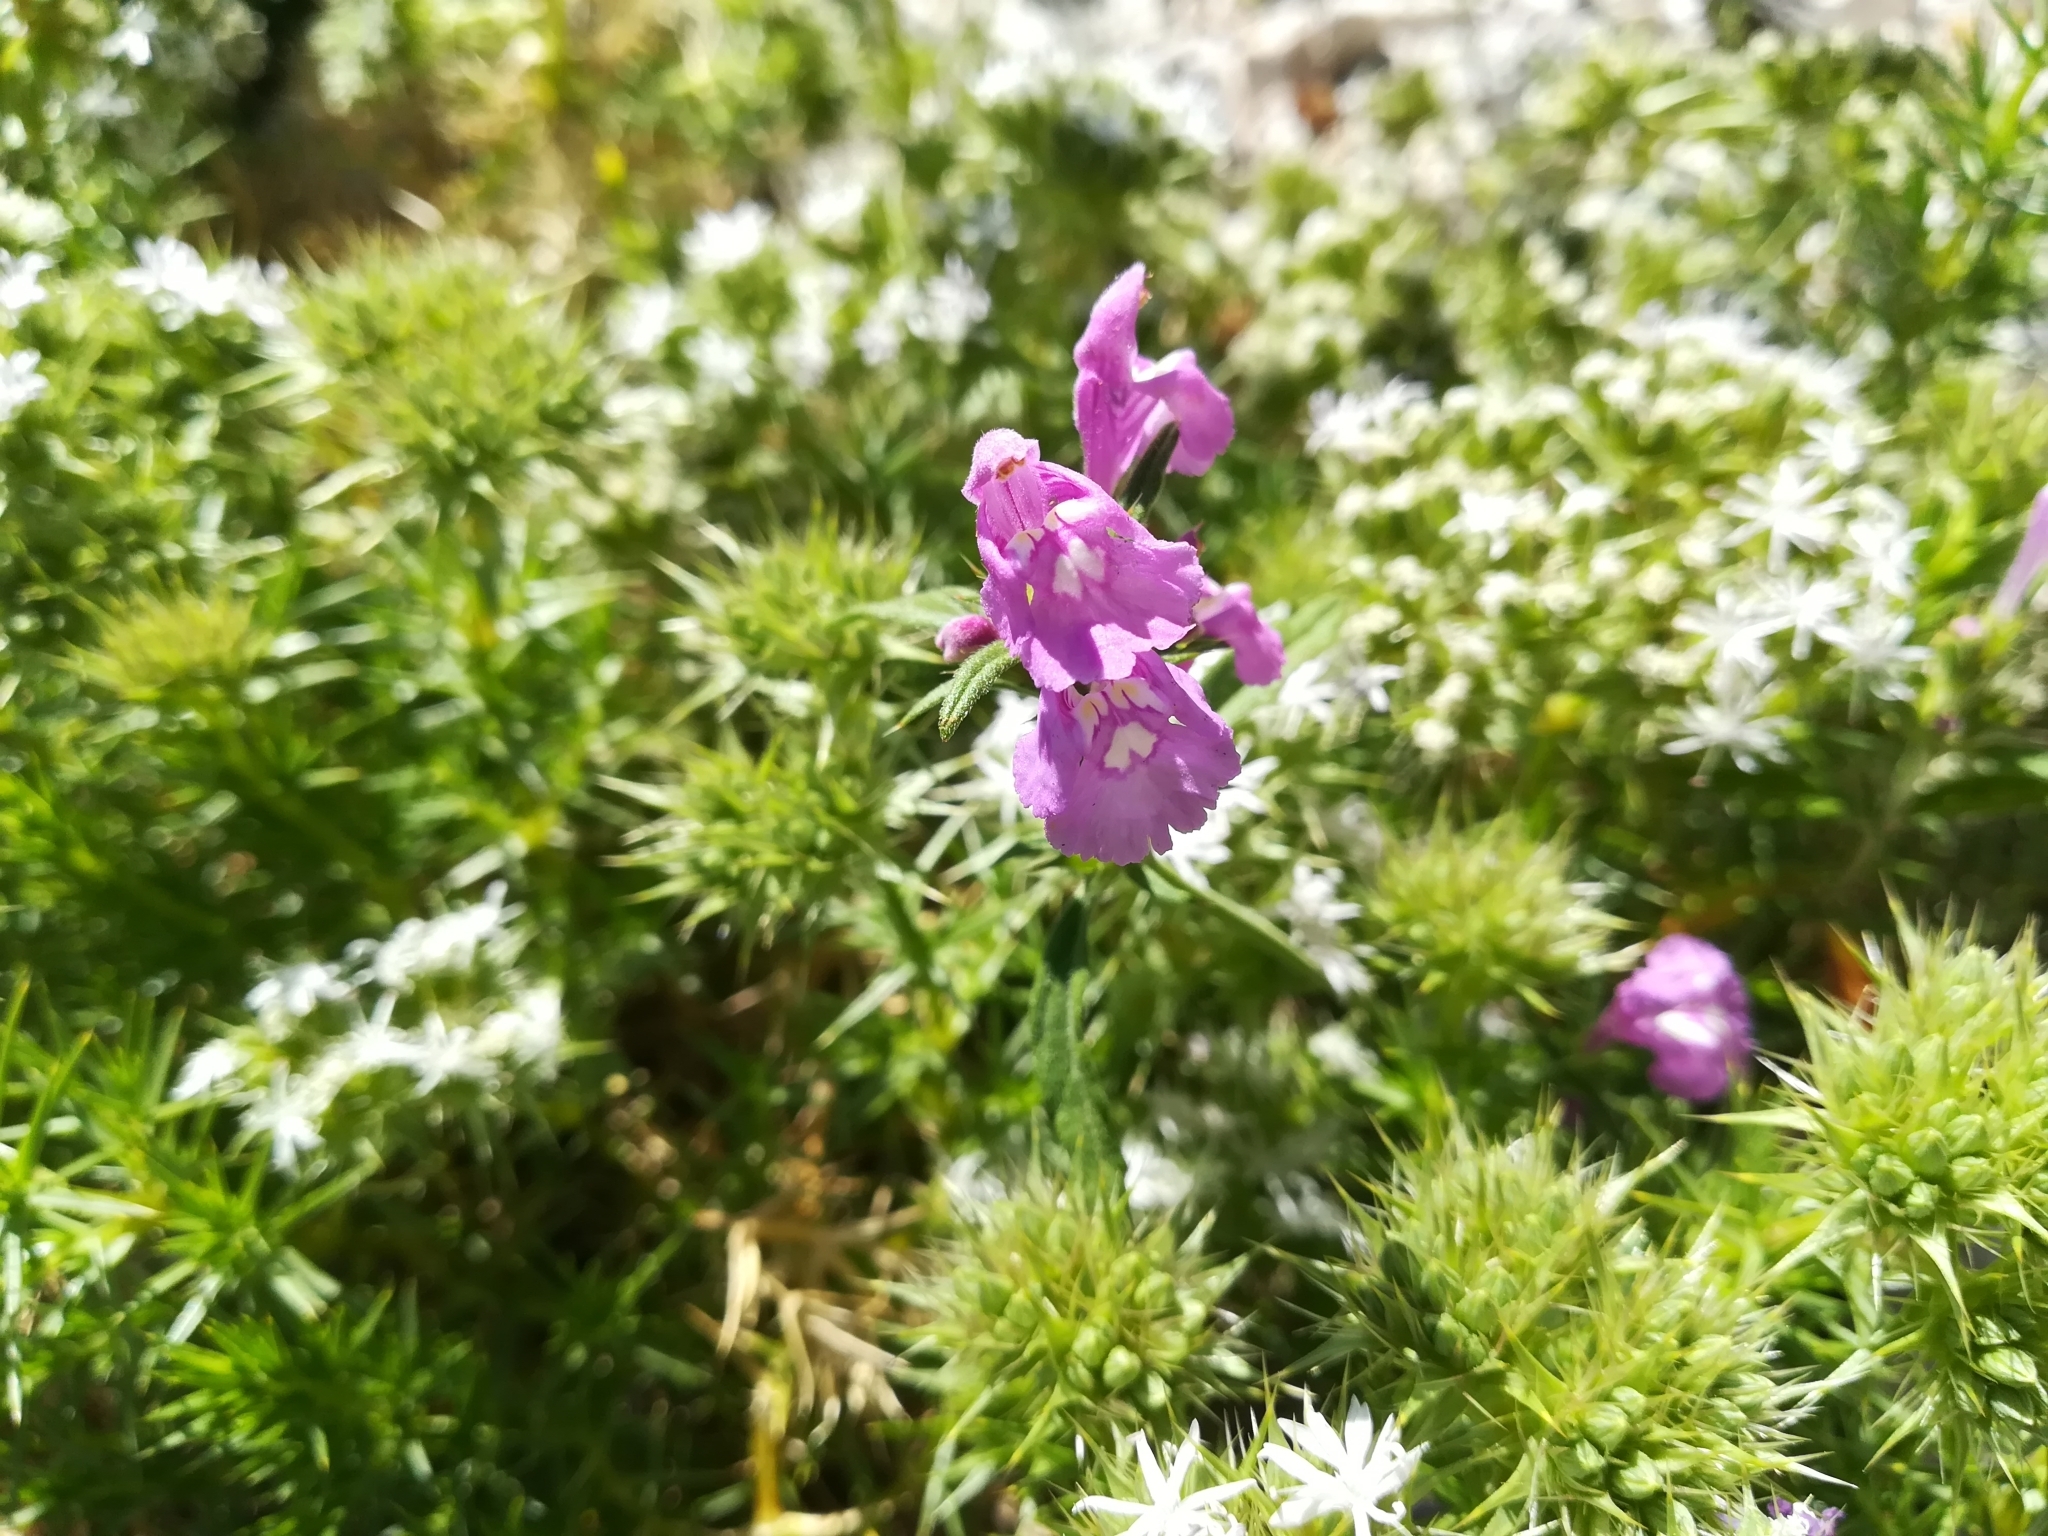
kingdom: Plantae
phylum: Tracheophyta
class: Magnoliopsida
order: Lamiales
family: Lamiaceae
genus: Galeopsis
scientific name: Galeopsis angustifolia
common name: Red hemp-nettle
